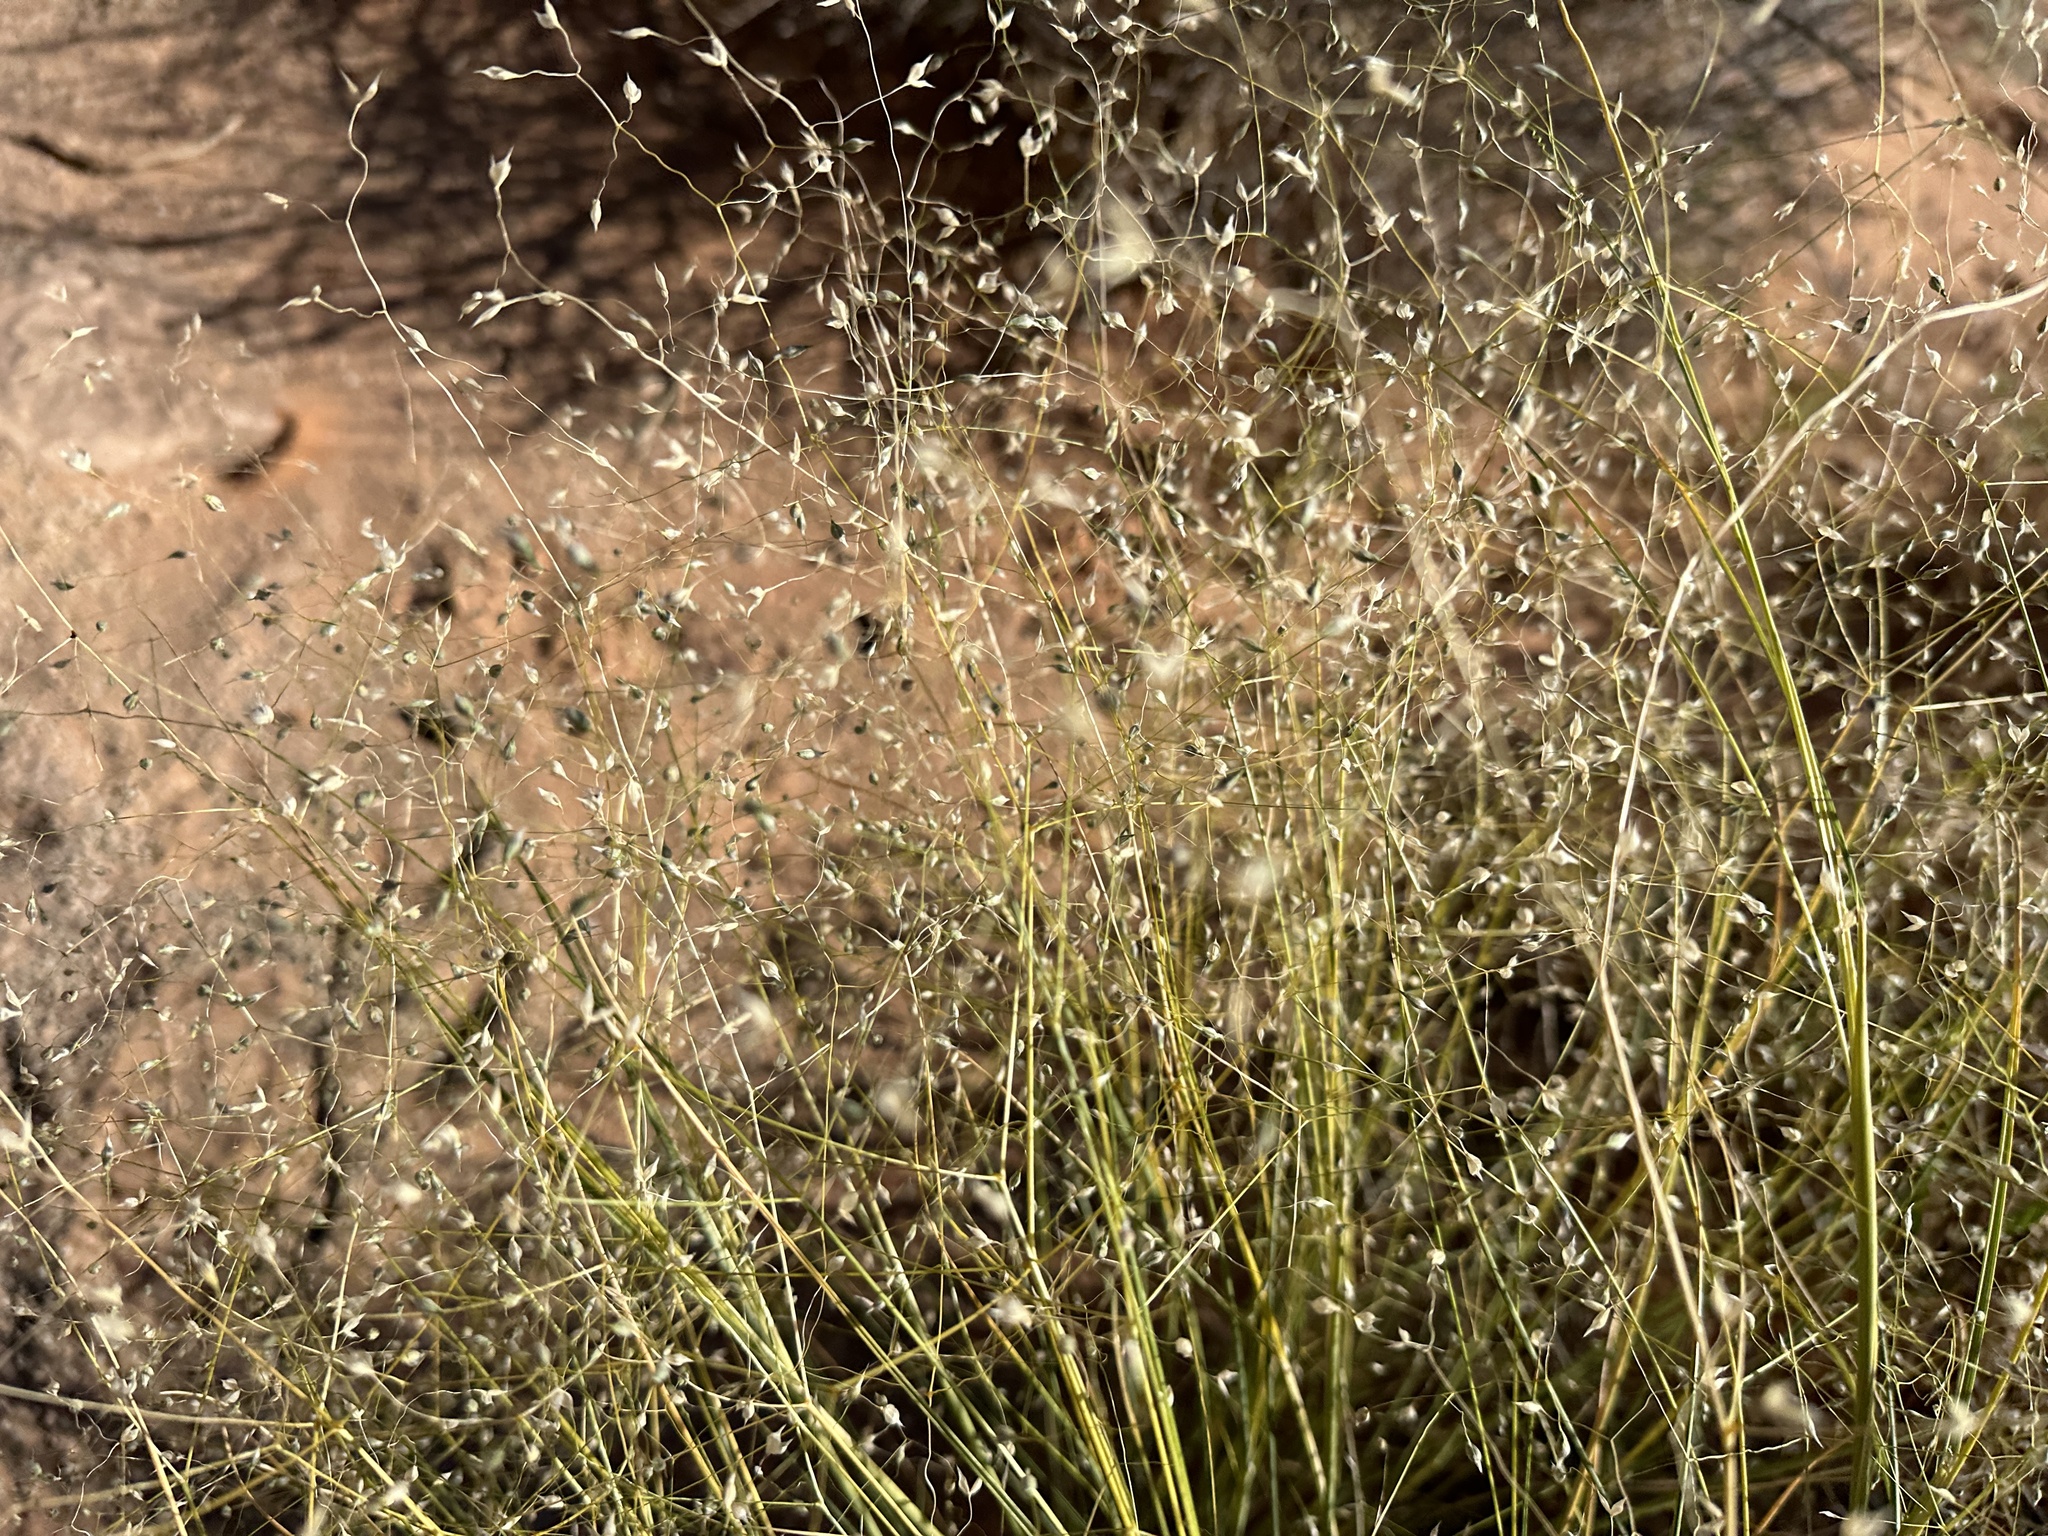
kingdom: Plantae
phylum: Tracheophyta
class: Liliopsida
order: Poales
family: Poaceae
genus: Eriocoma
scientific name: Eriocoma hymenoides
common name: Indian mountain ricegrass
